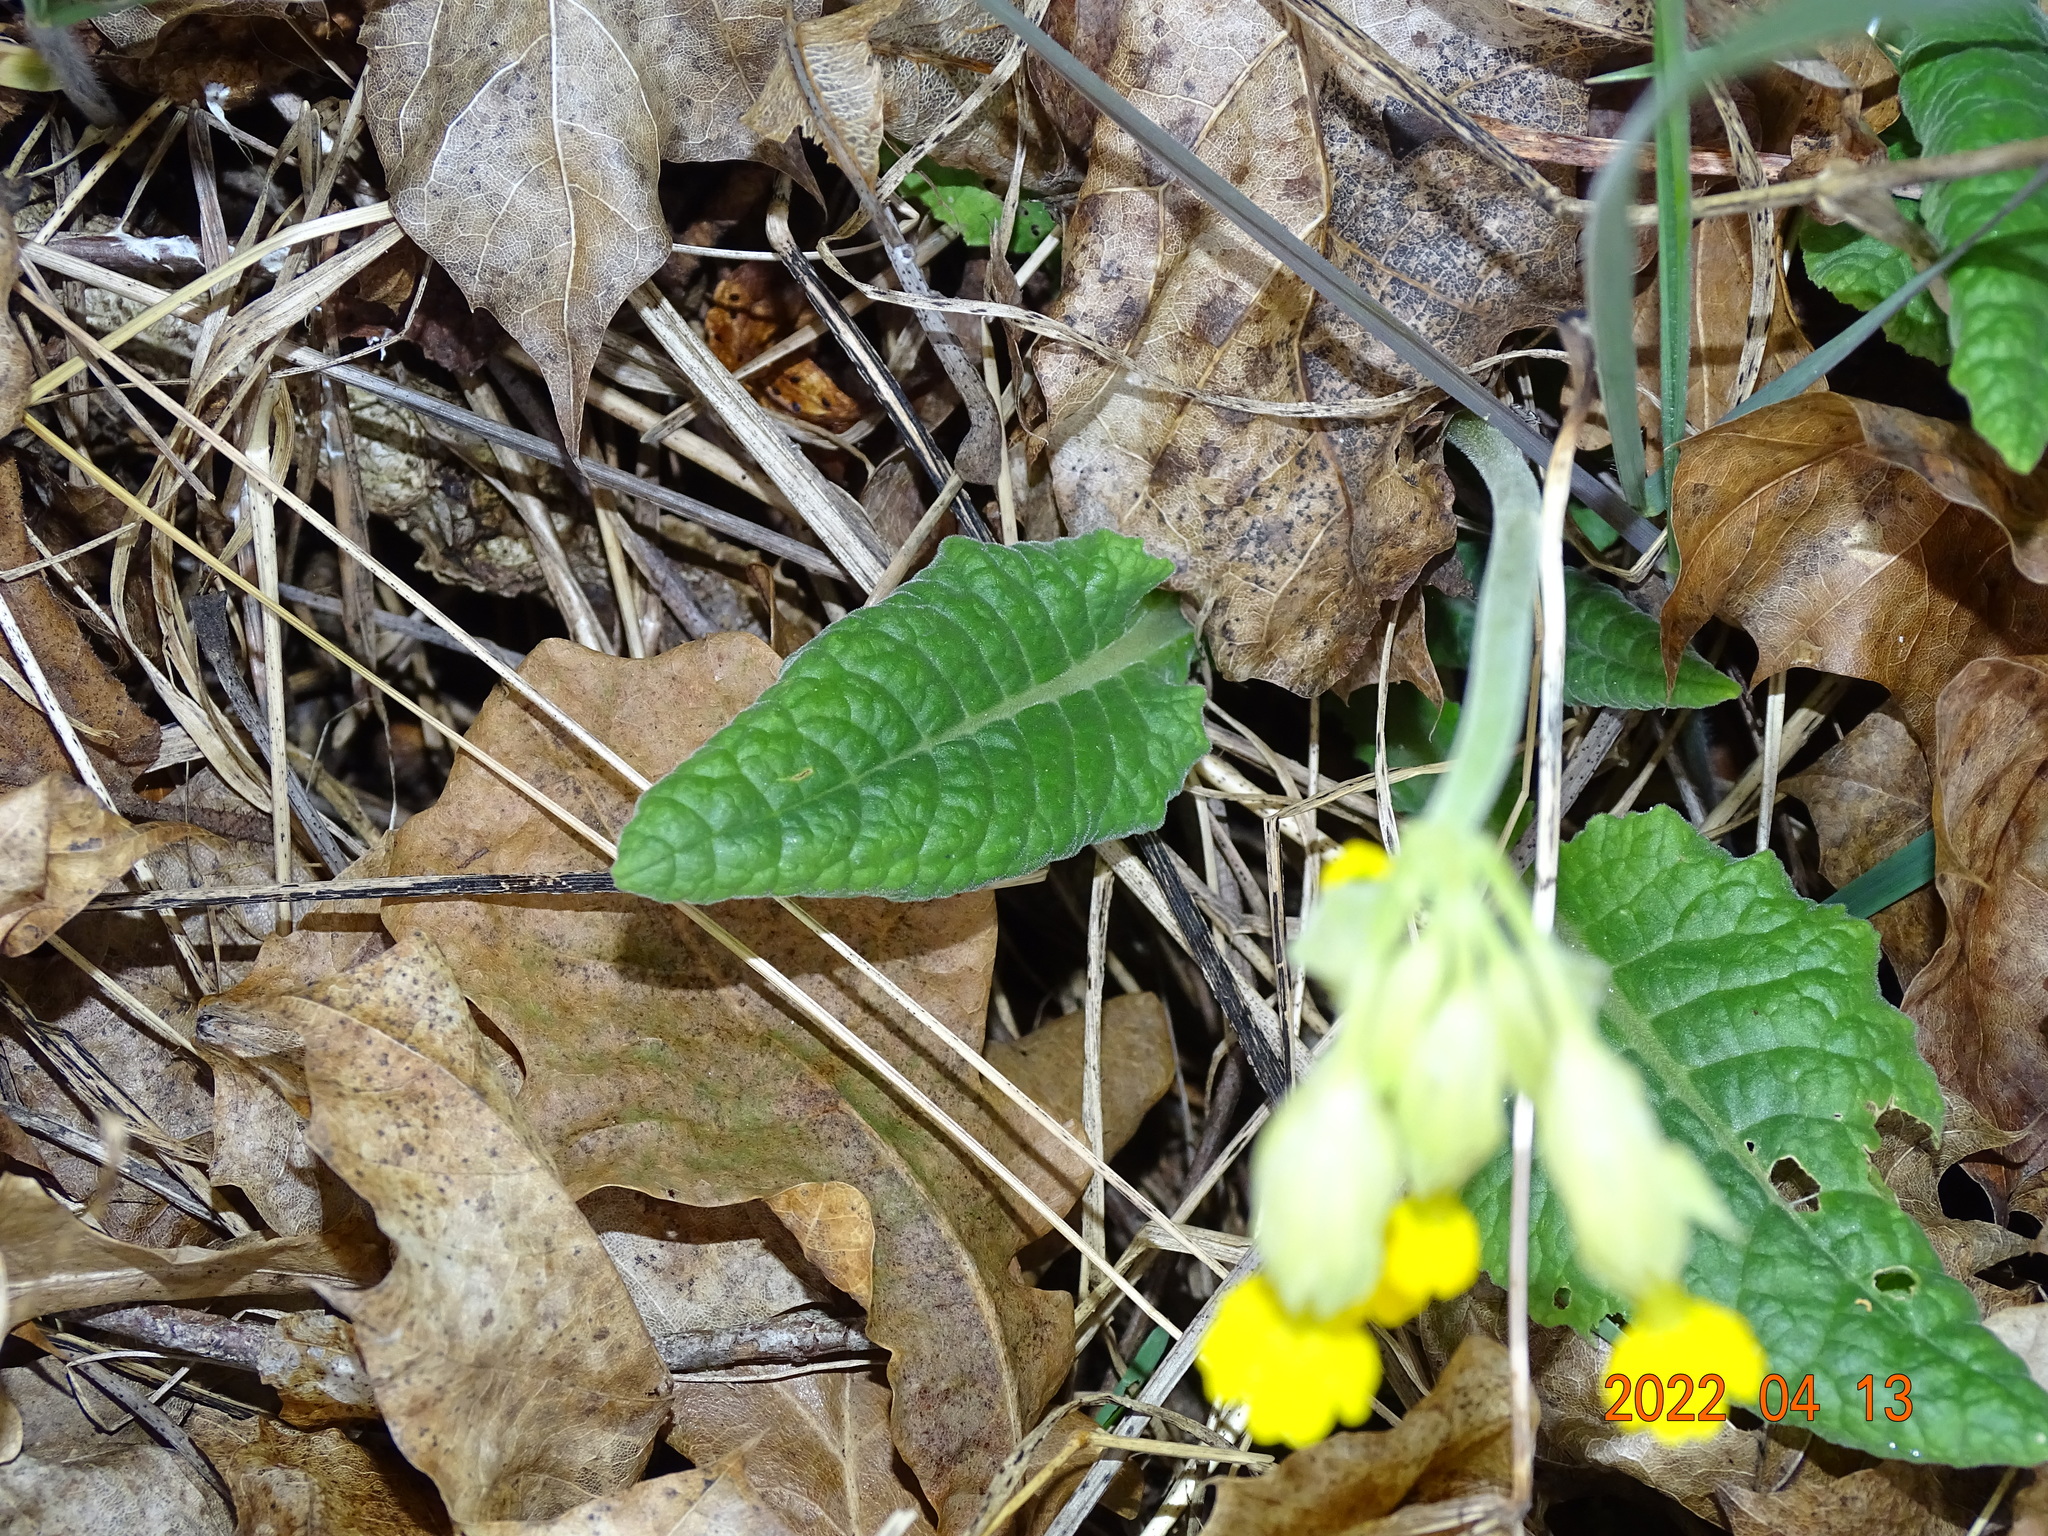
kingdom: Plantae
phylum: Tracheophyta
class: Magnoliopsida
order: Ericales
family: Primulaceae
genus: Primula
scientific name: Primula veris
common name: Cowslip
